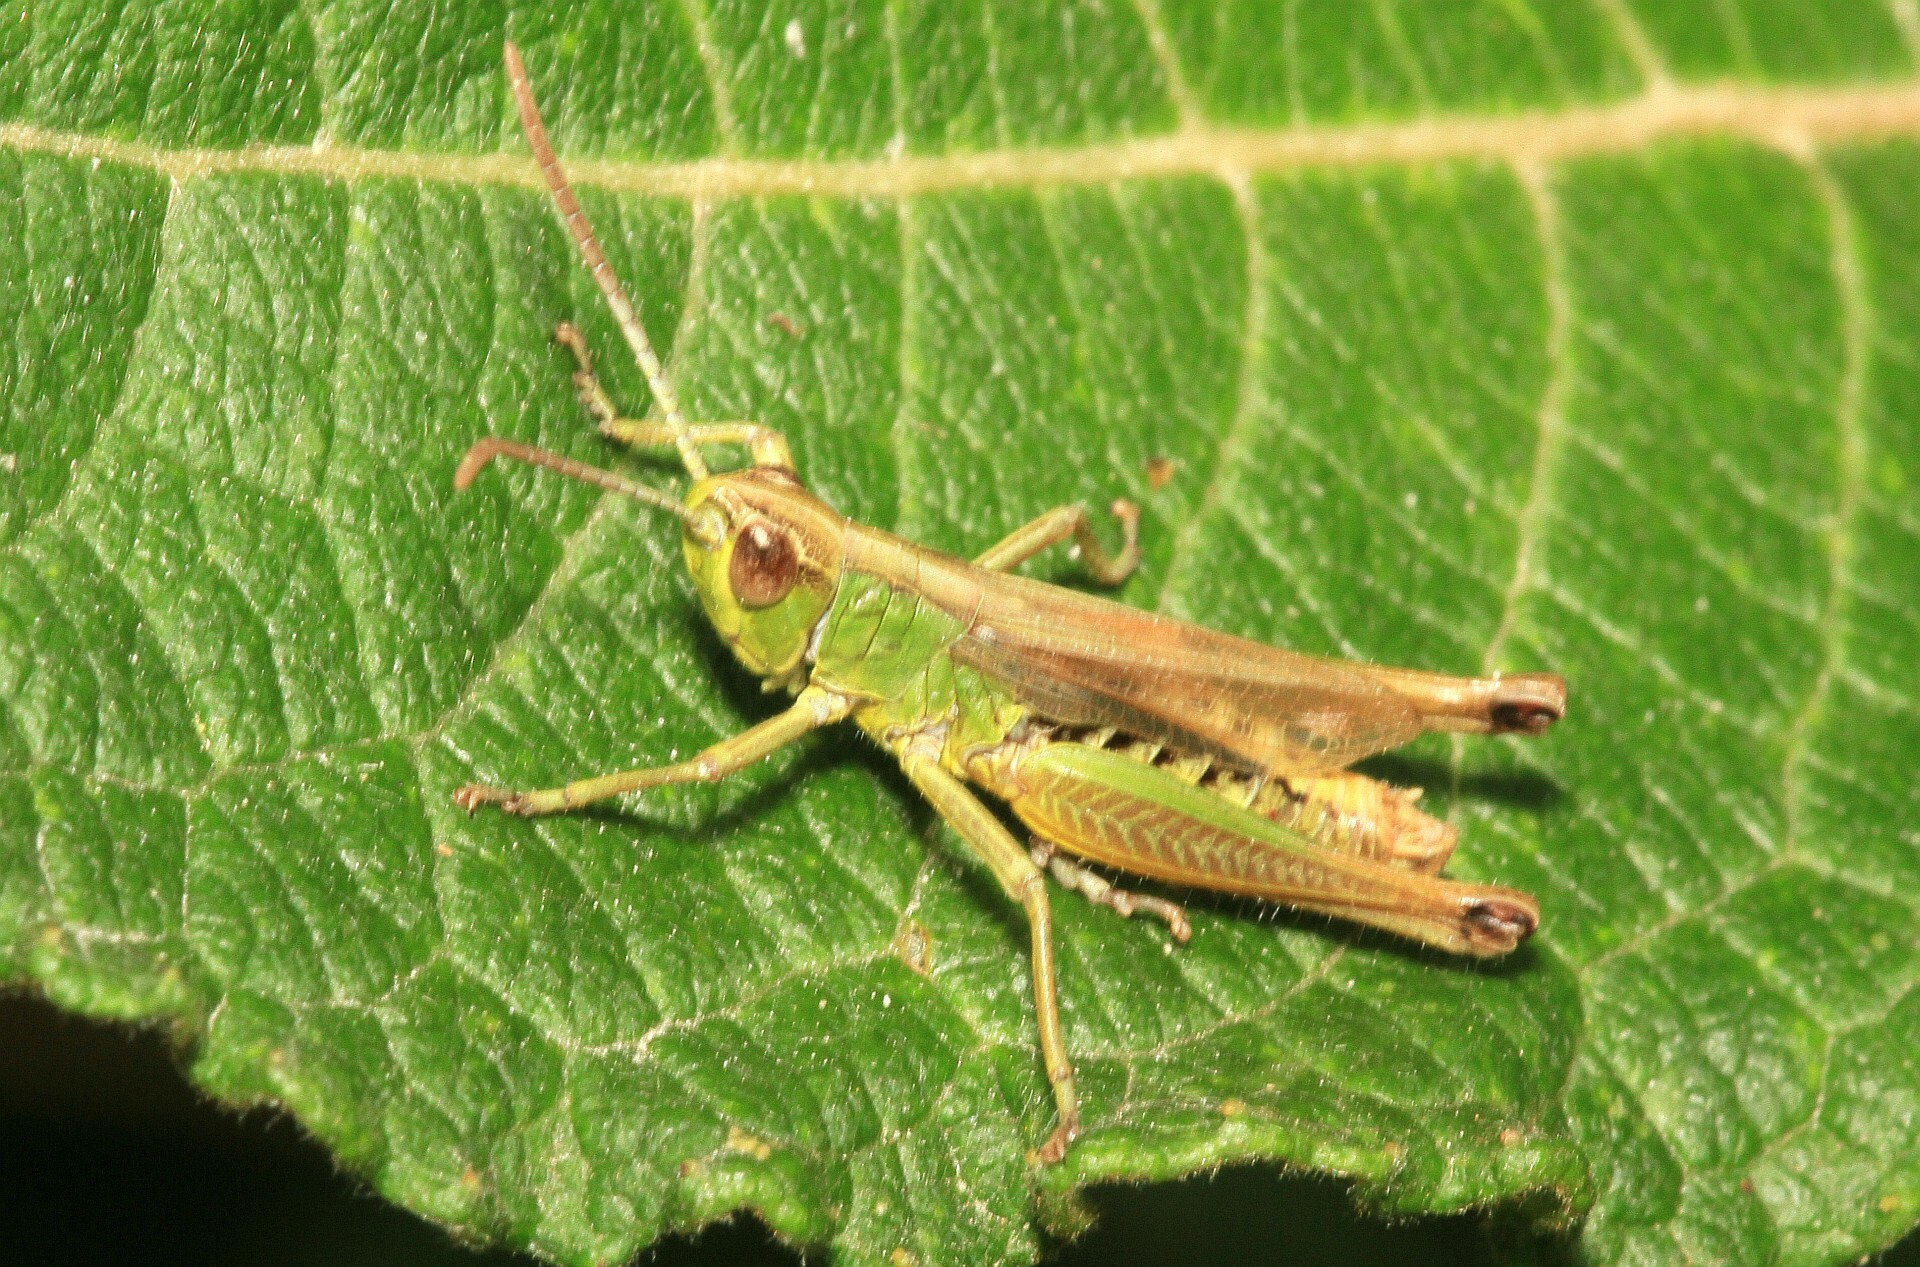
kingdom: Animalia
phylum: Arthropoda
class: Insecta
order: Orthoptera
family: Acrididae
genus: Pseudochorthippus
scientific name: Pseudochorthippus parallelus
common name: Meadow grasshopper
